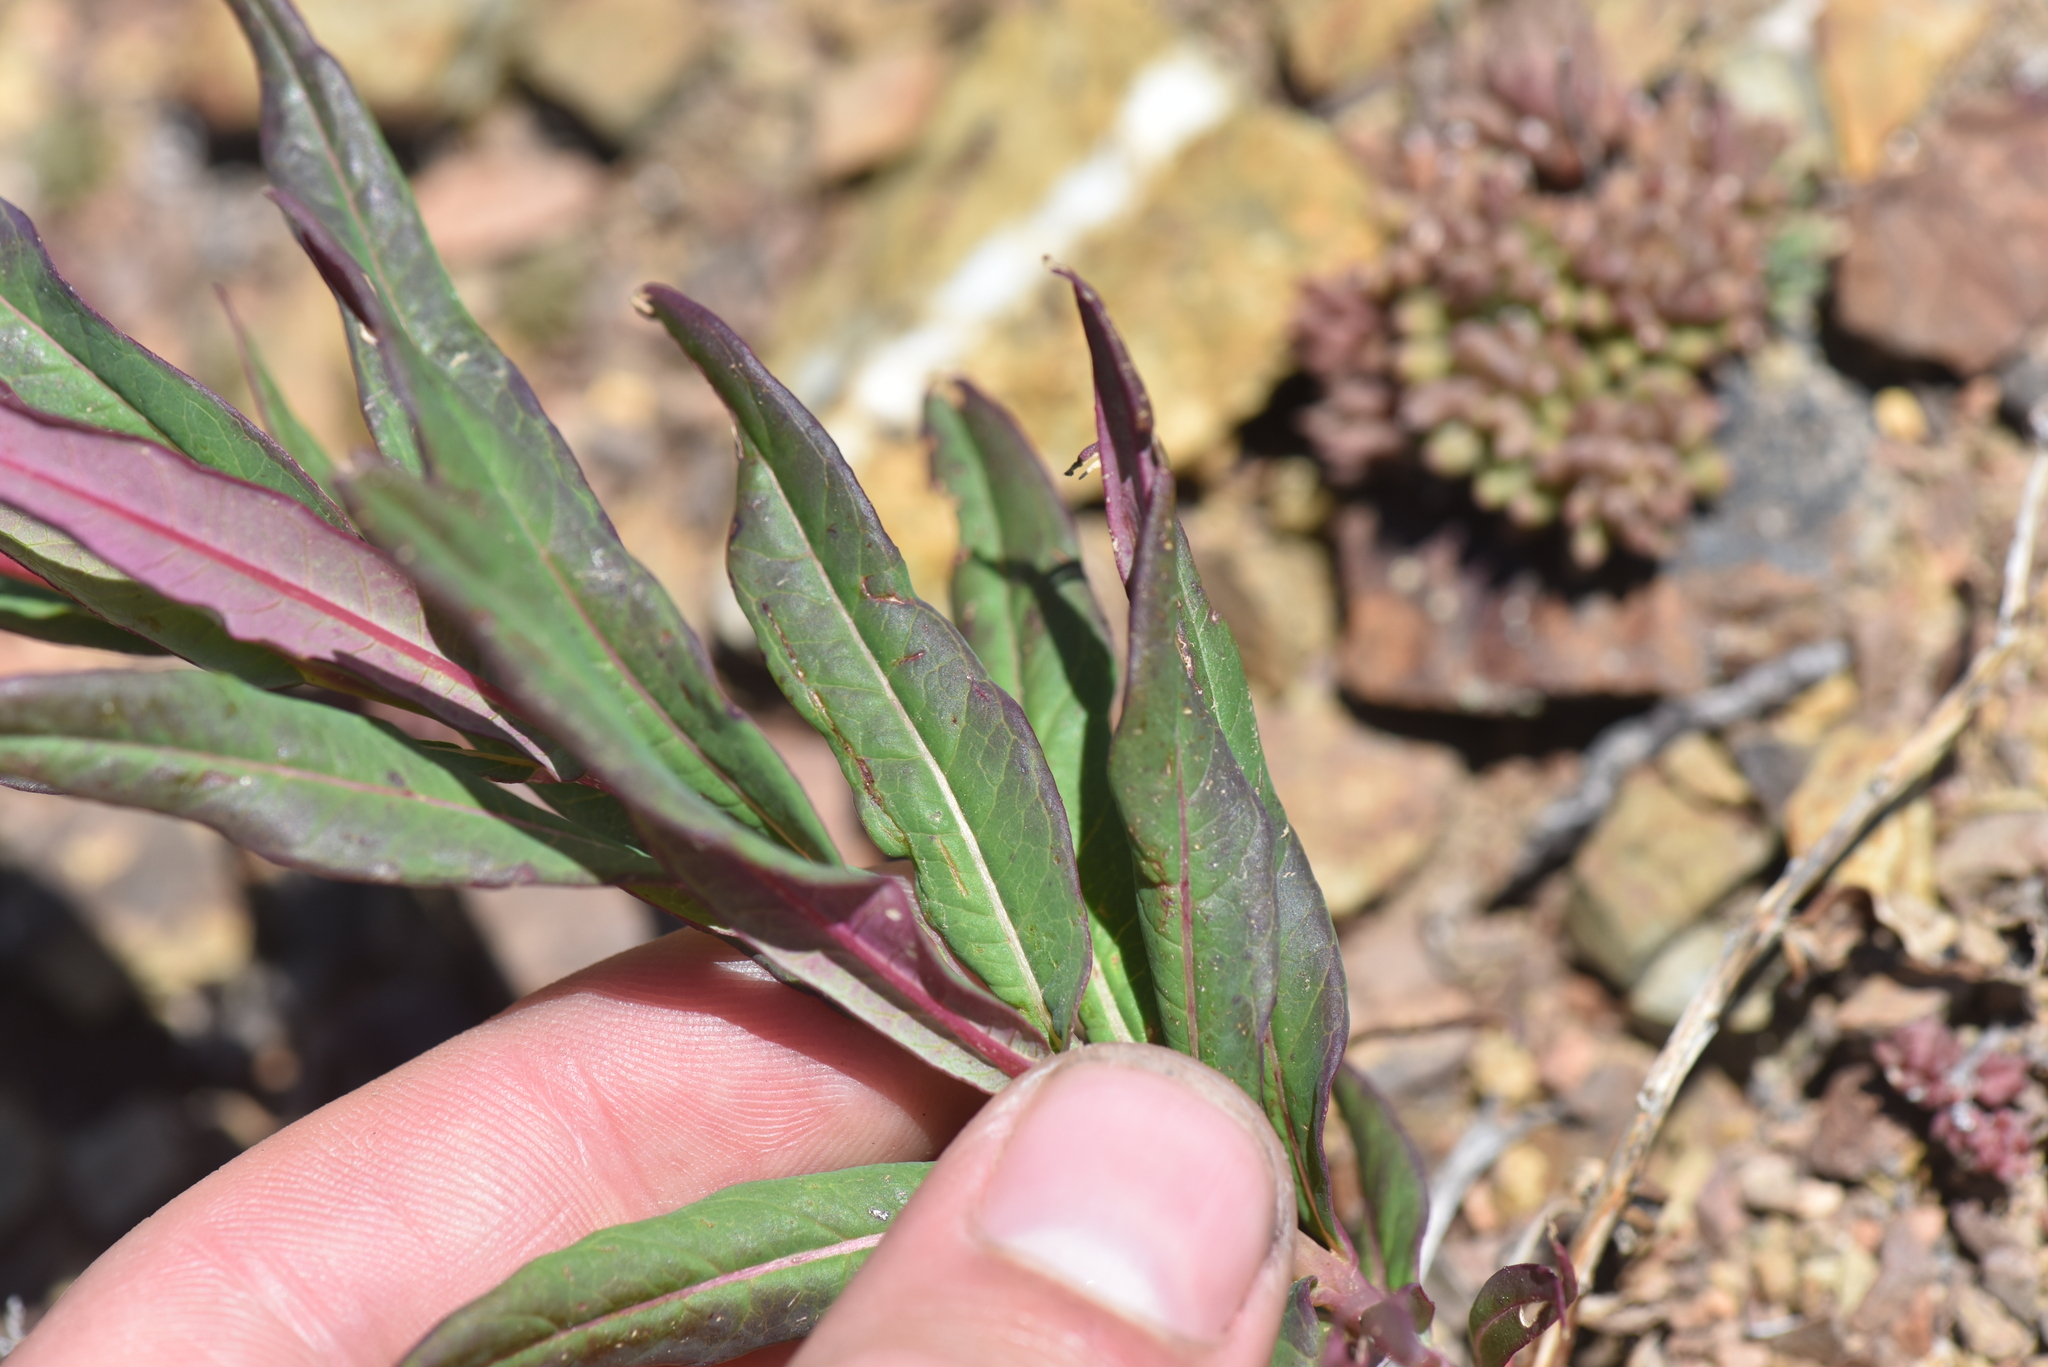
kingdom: Plantae
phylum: Tracheophyta
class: Magnoliopsida
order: Myrtales
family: Onagraceae
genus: Chamaenerion
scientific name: Chamaenerion angustifolium
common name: Fireweed
